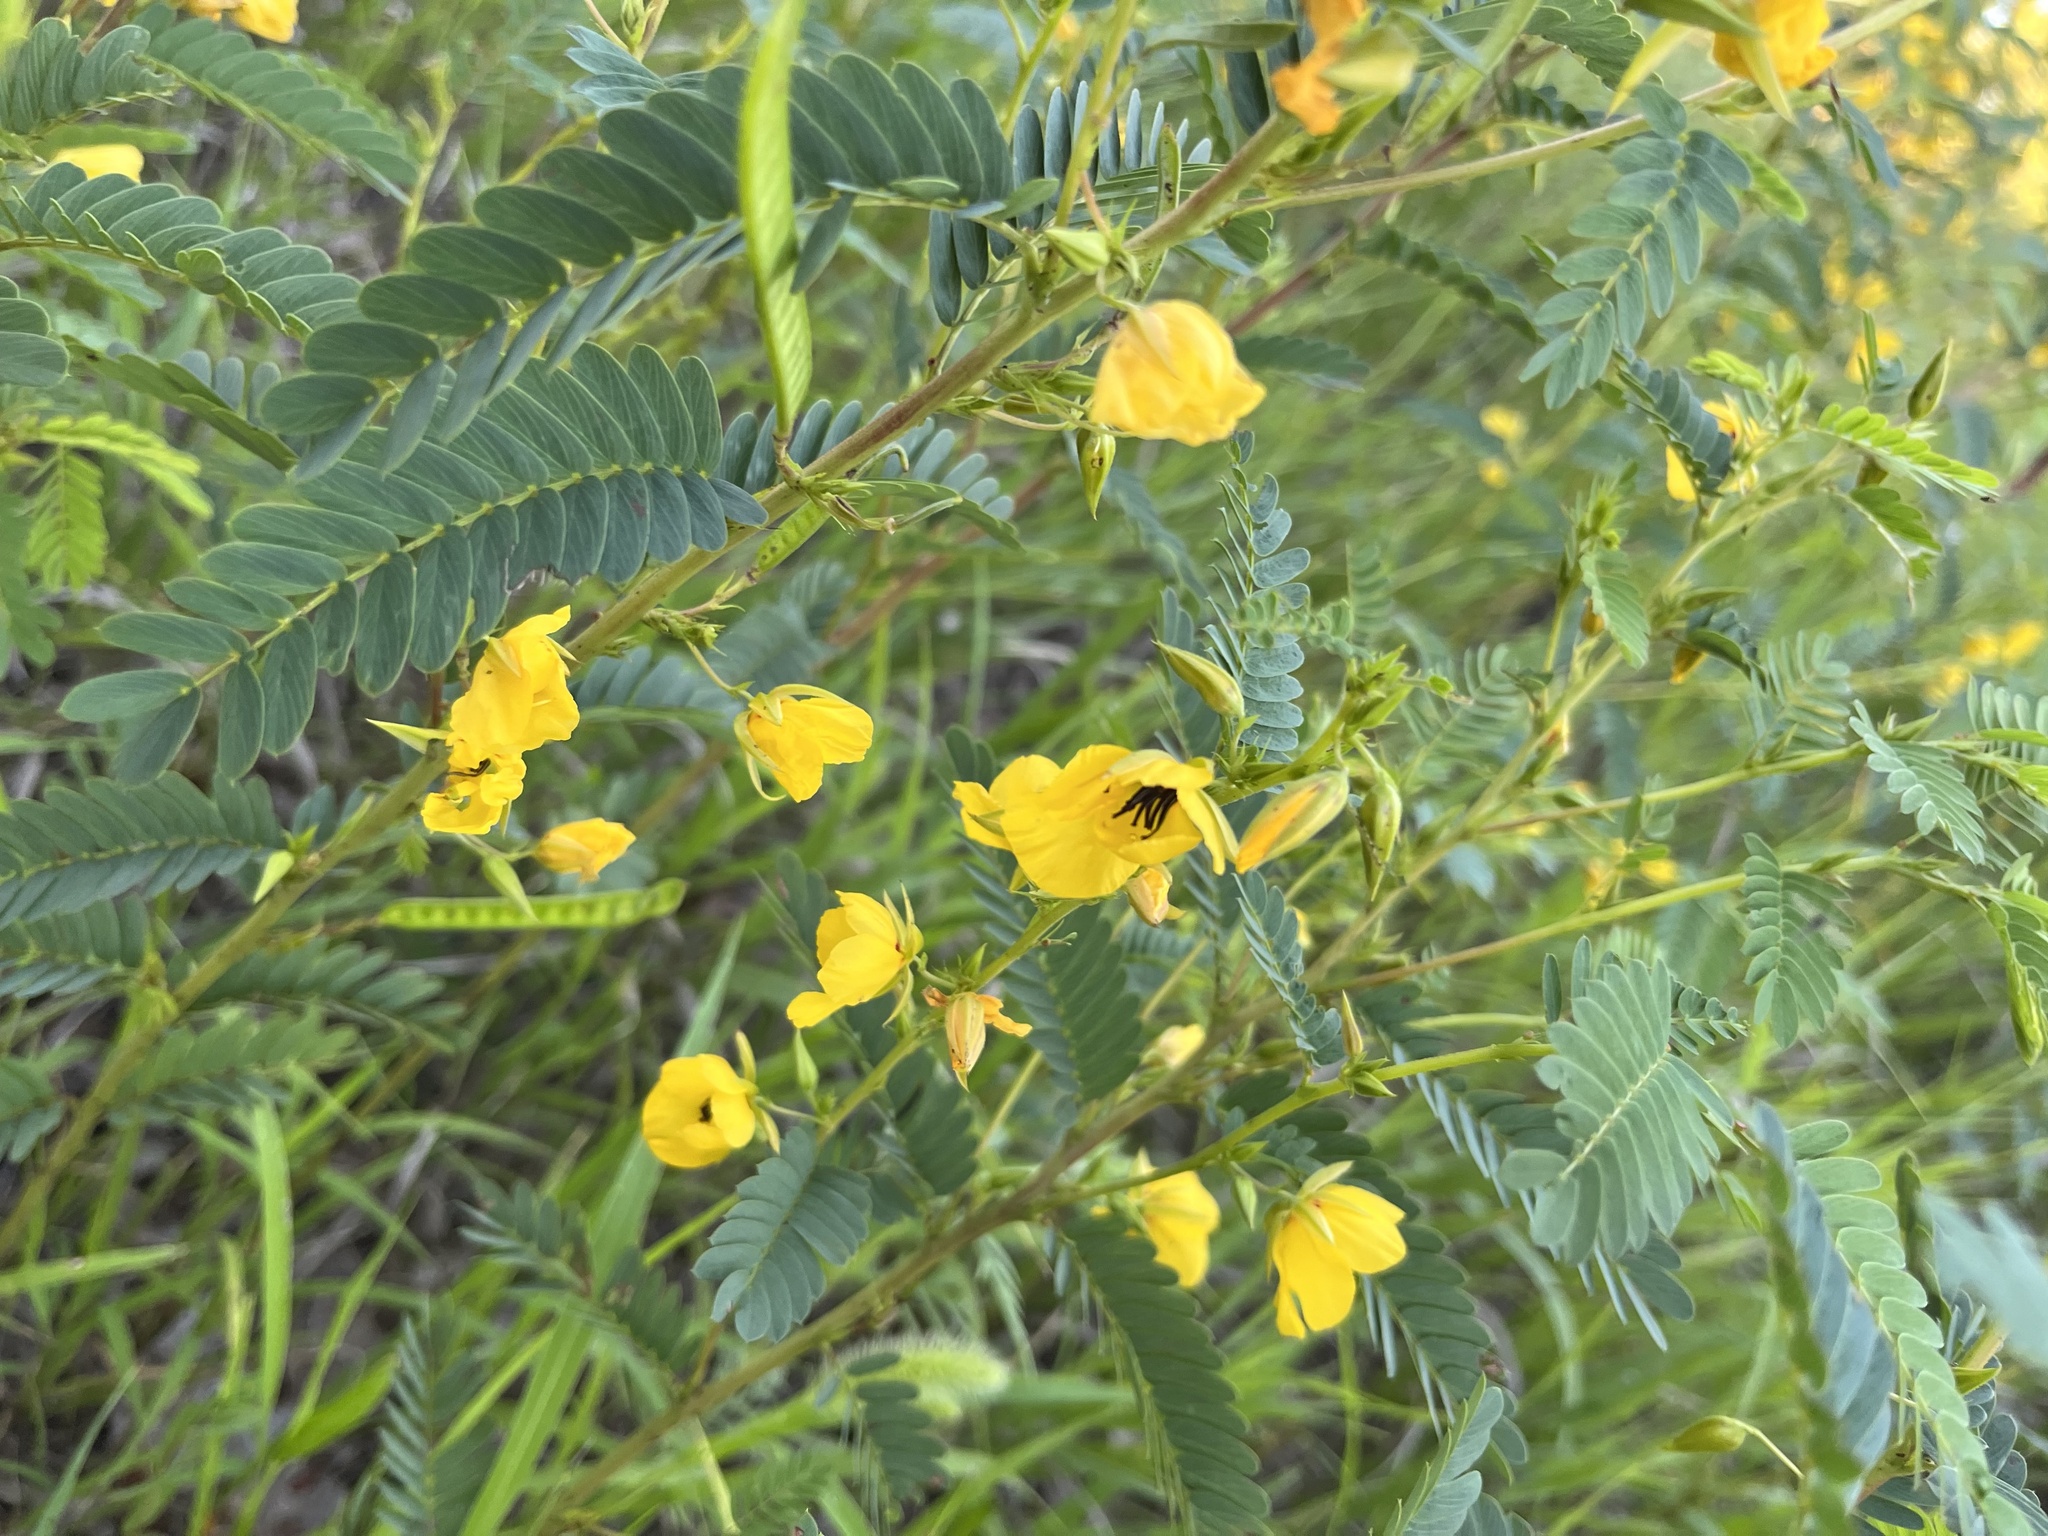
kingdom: Plantae
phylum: Tracheophyta
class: Magnoliopsida
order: Fabales
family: Fabaceae
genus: Chamaecrista
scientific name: Chamaecrista fasciculata
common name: Golden cassia
